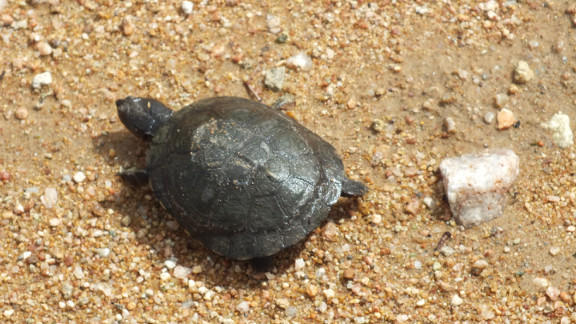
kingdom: Animalia
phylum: Chordata
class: Testudines
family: Pelomedusidae
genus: Pelomedusa
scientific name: Pelomedusa subrufa
